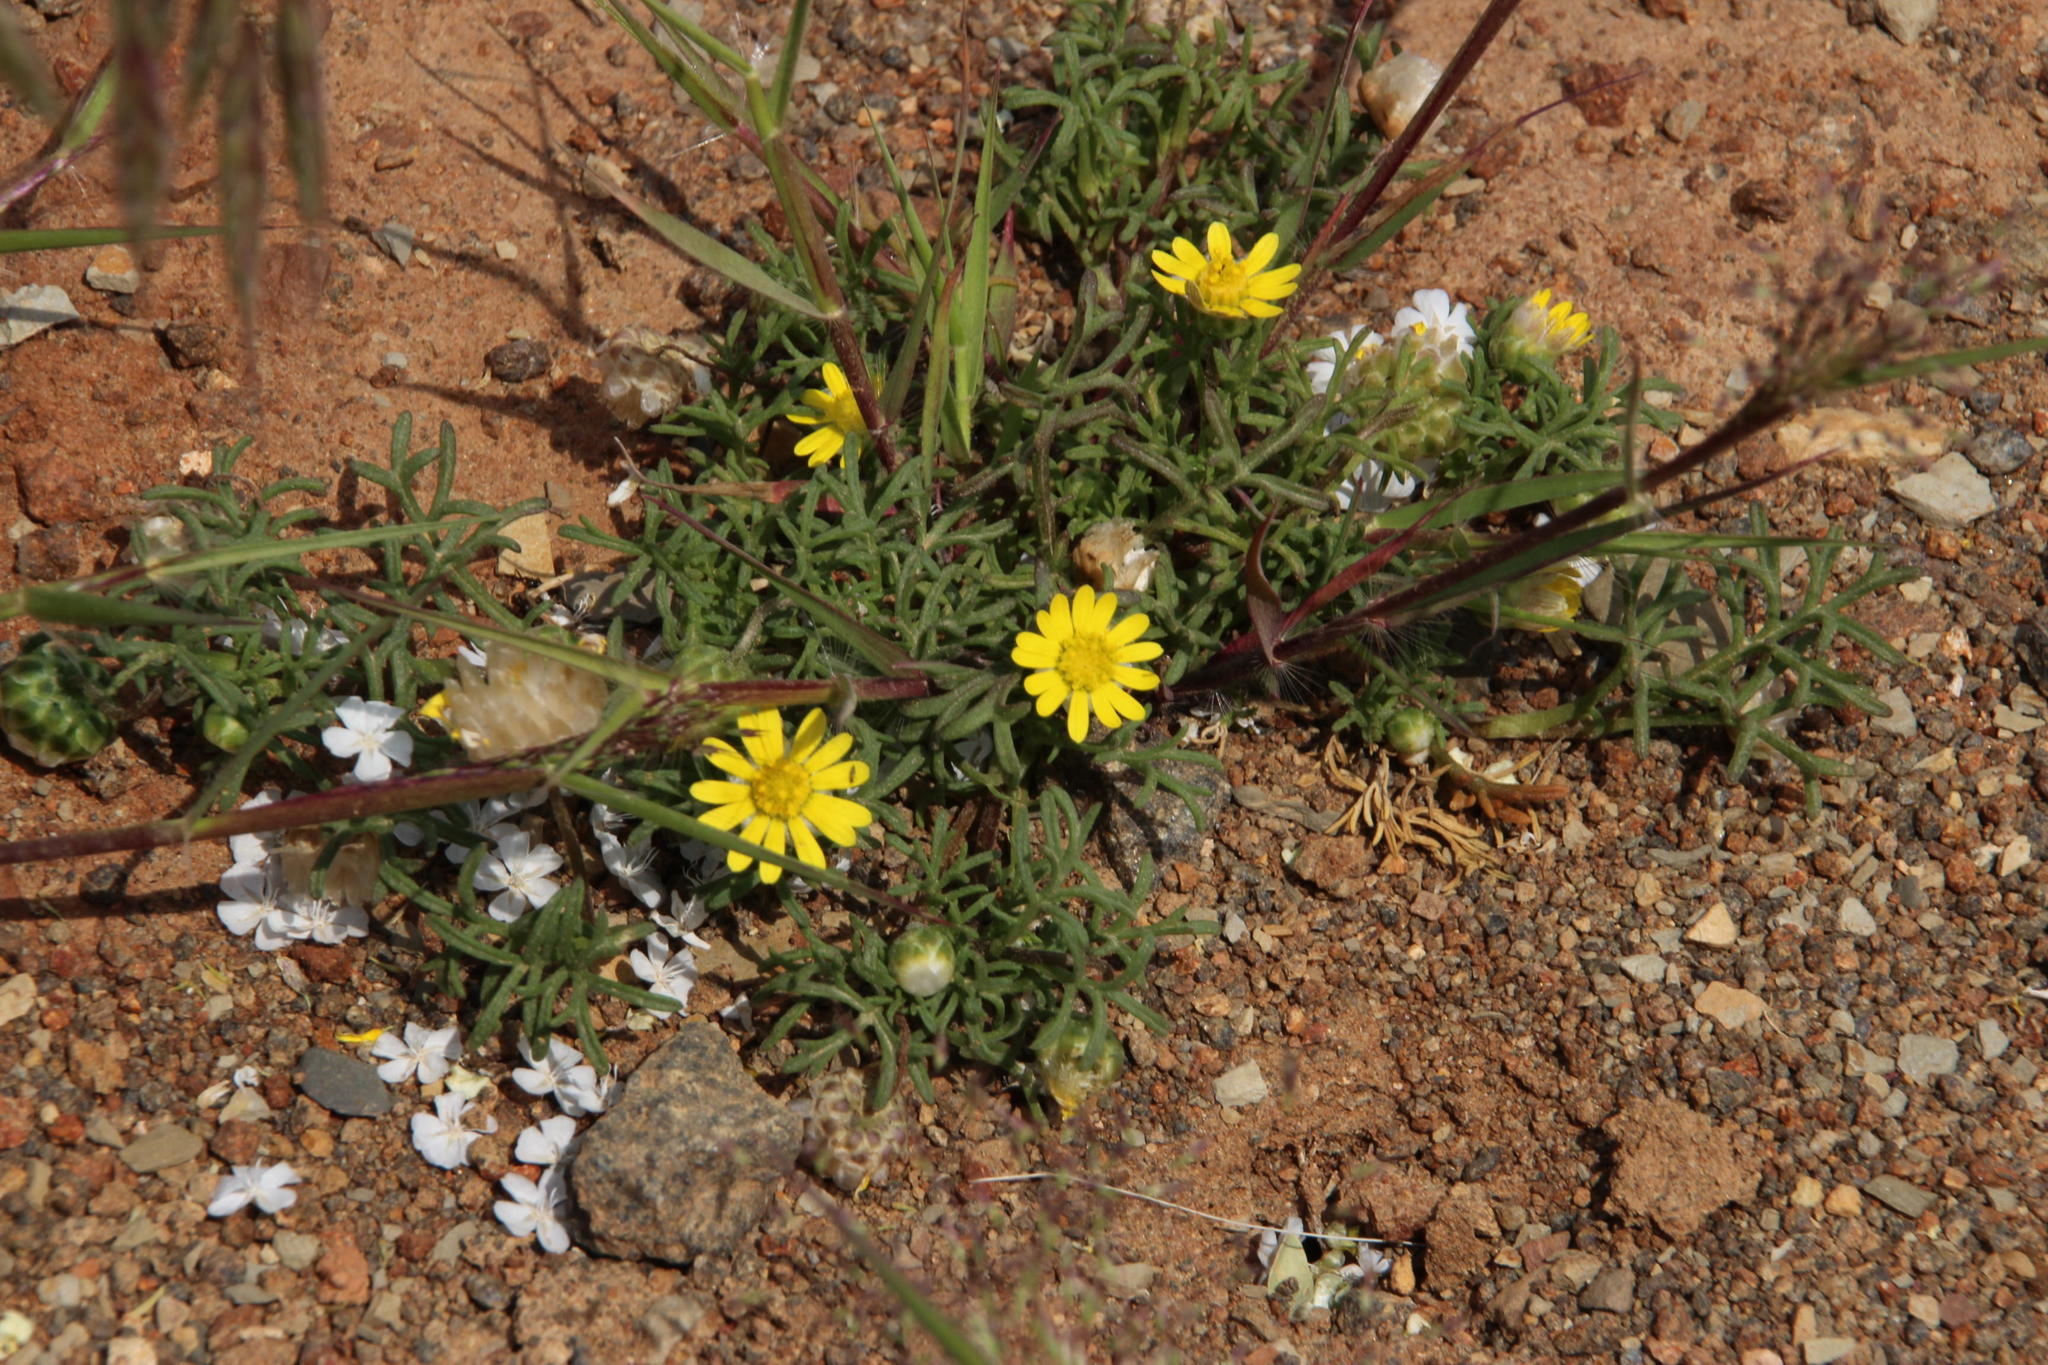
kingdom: Plantae
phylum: Tracheophyta
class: Magnoliopsida
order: Asterales
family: Asteraceae
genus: Ursinia
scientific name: Ursinia nana
